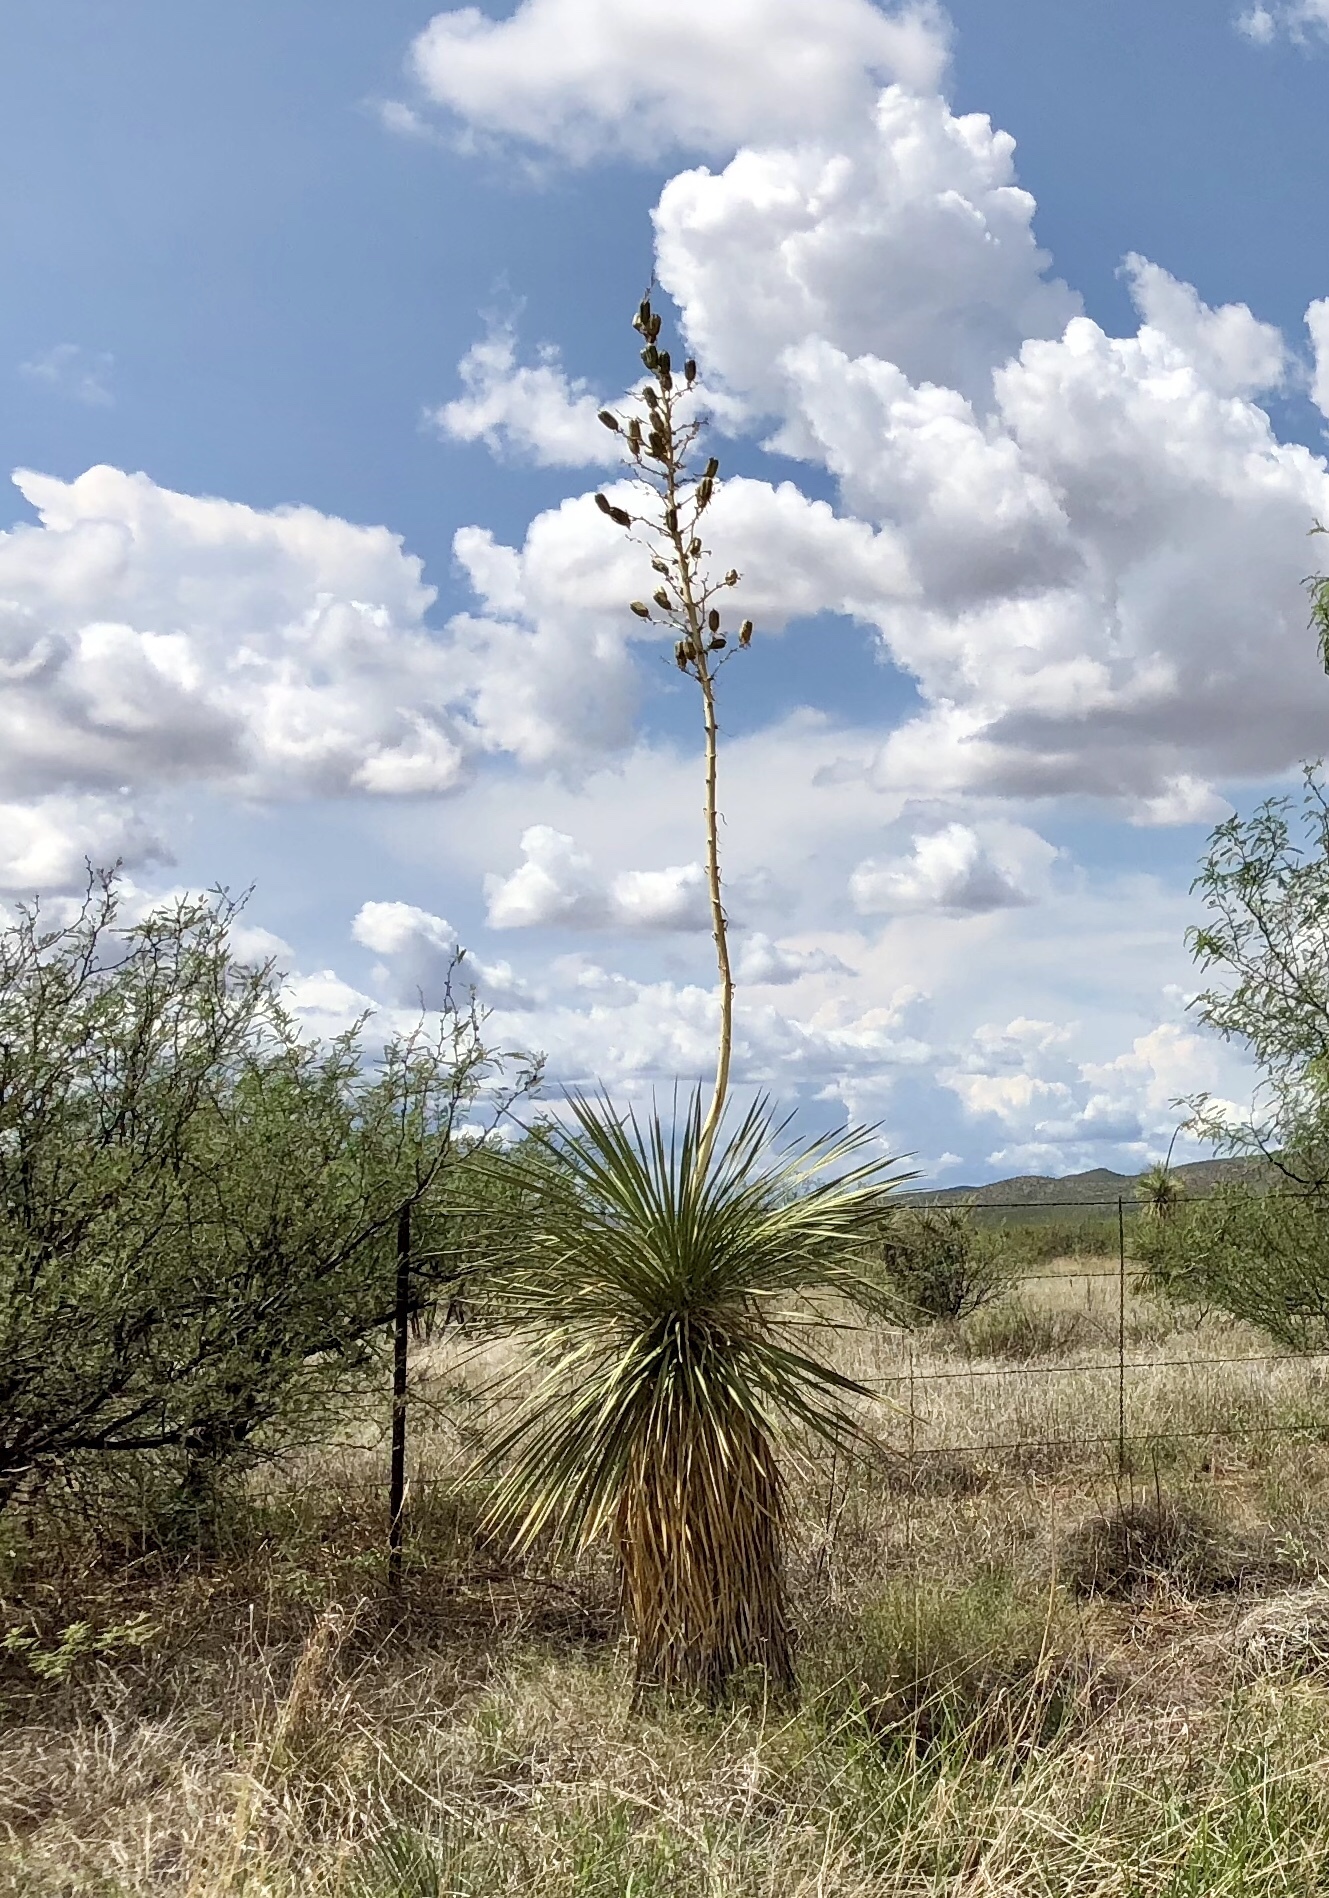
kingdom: Plantae
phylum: Tracheophyta
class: Liliopsida
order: Asparagales
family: Asparagaceae
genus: Yucca
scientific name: Yucca elata
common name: Palmella
